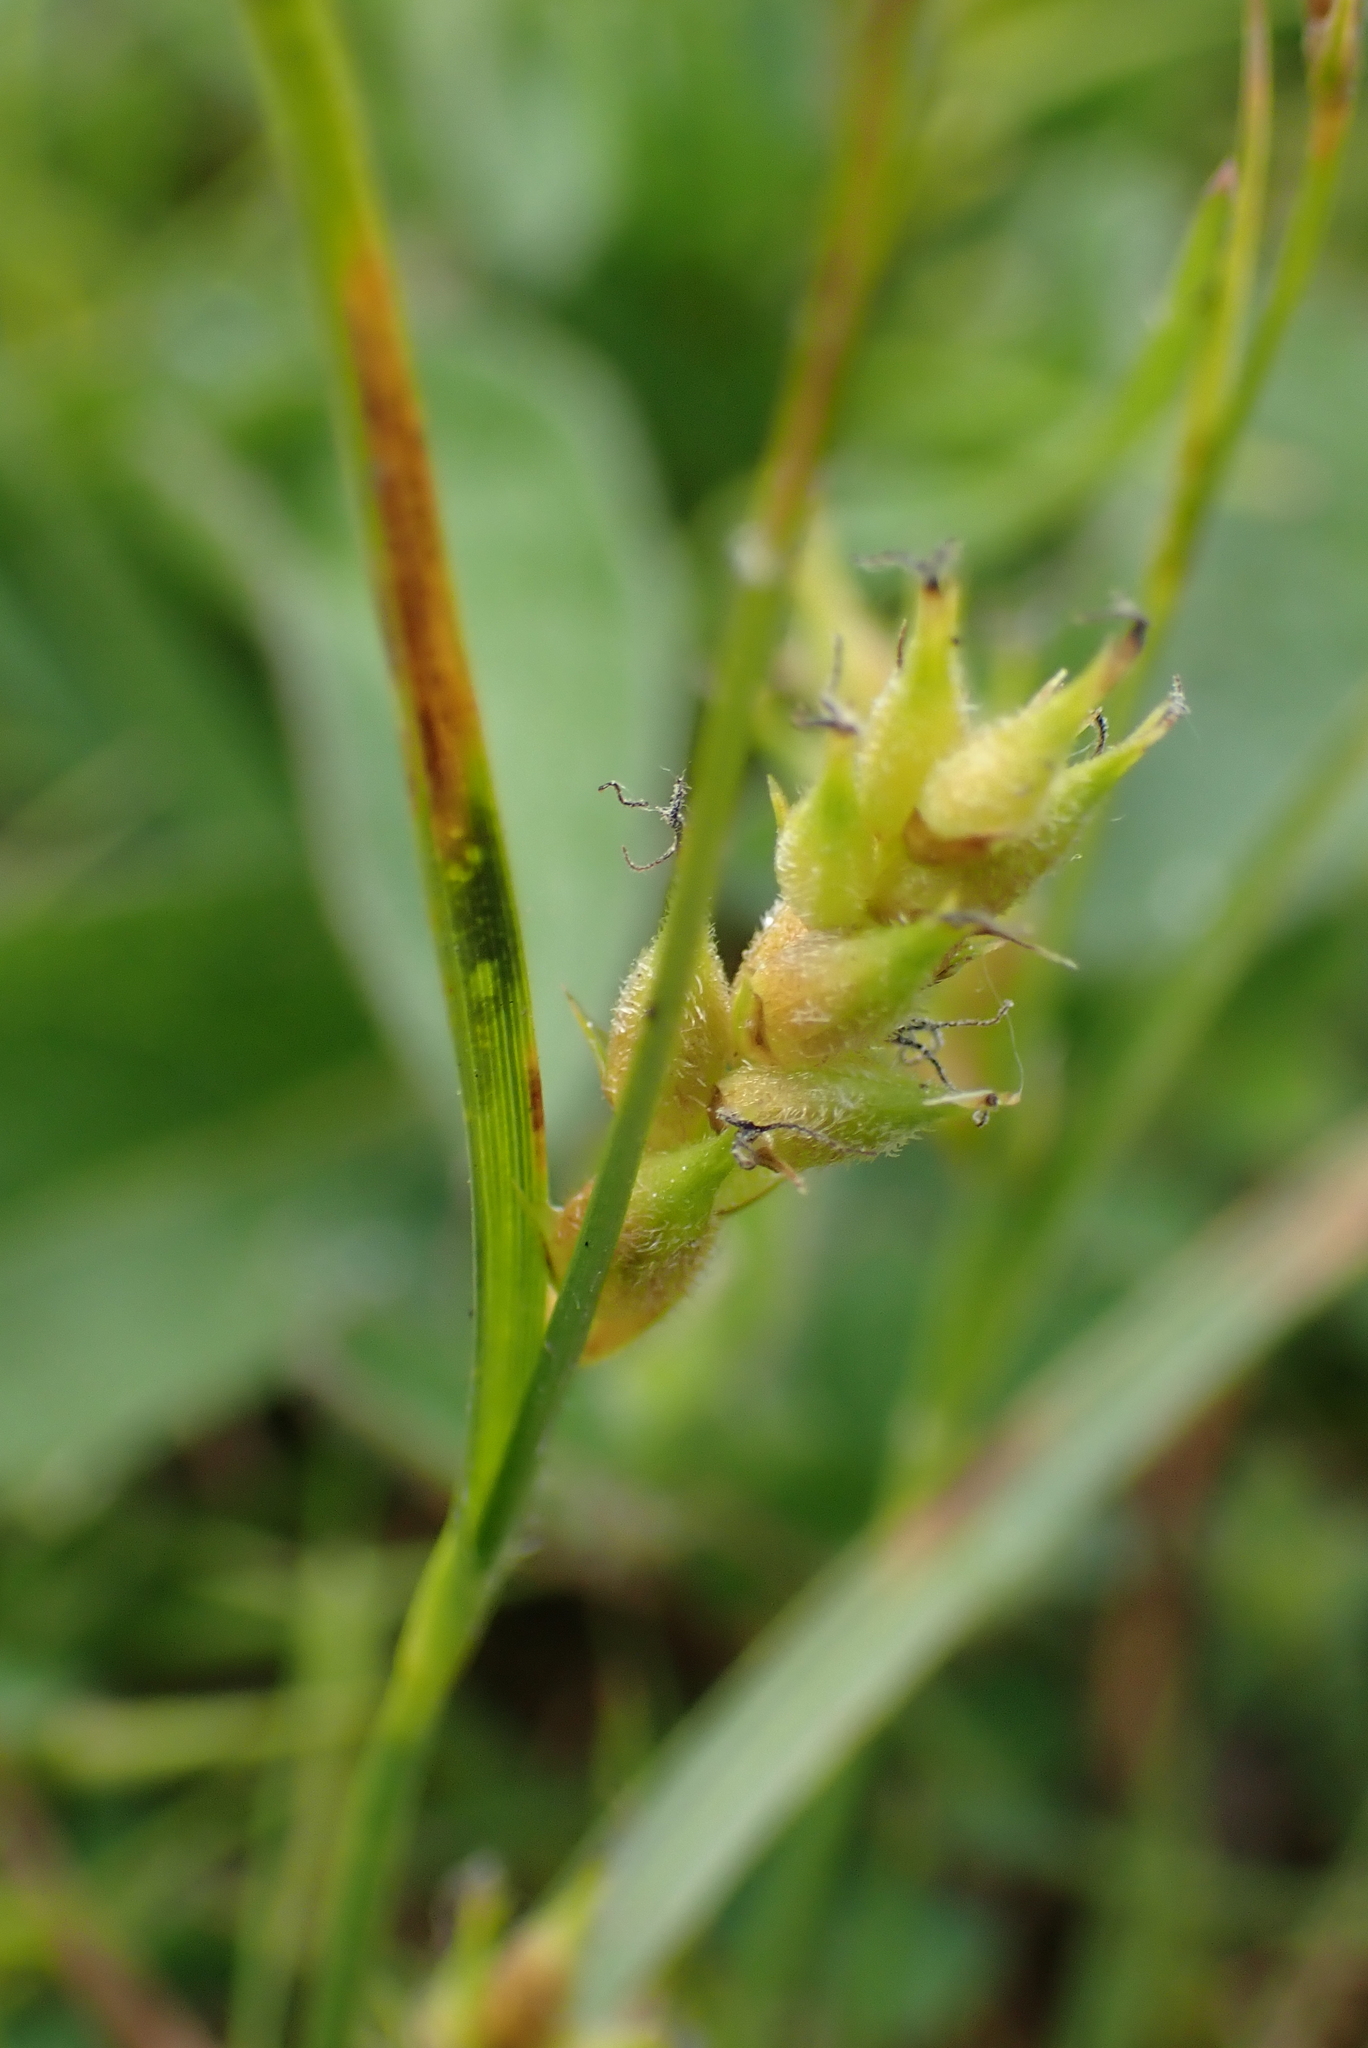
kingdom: Plantae
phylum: Tracheophyta
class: Liliopsida
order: Poales
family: Cyperaceae
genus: Carex
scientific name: Carex hirta
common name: Hairy sedge
